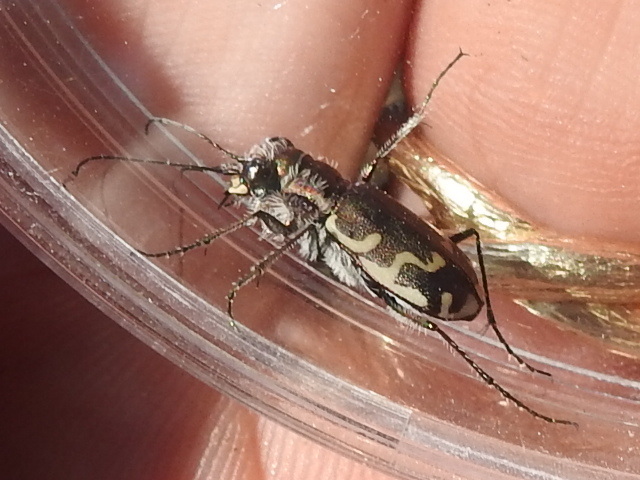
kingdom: Animalia
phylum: Arthropoda
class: Insecta
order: Coleoptera
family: Carabidae
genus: Cicindela
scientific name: Cicindela repanda
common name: Bronzed tiger beetle
